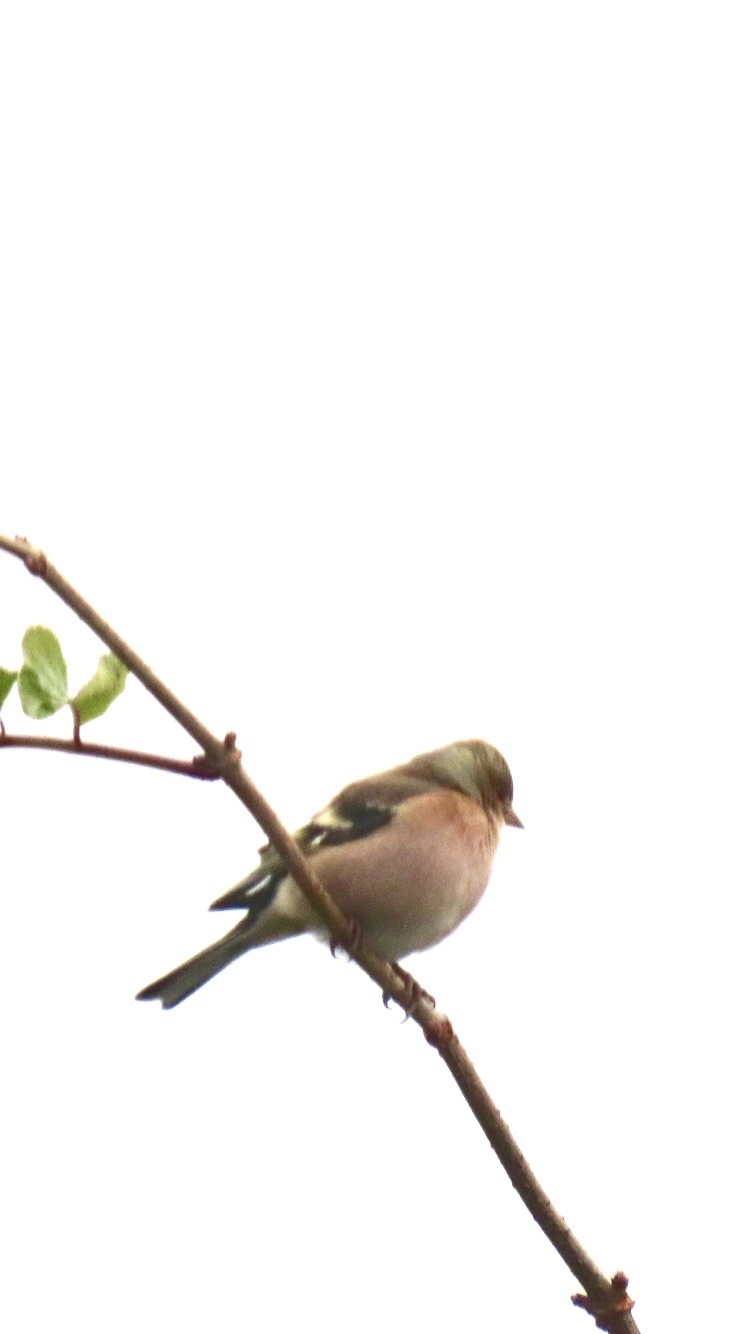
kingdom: Animalia
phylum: Chordata
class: Aves
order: Passeriformes
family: Fringillidae
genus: Fringilla
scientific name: Fringilla coelebs
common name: Common chaffinch
